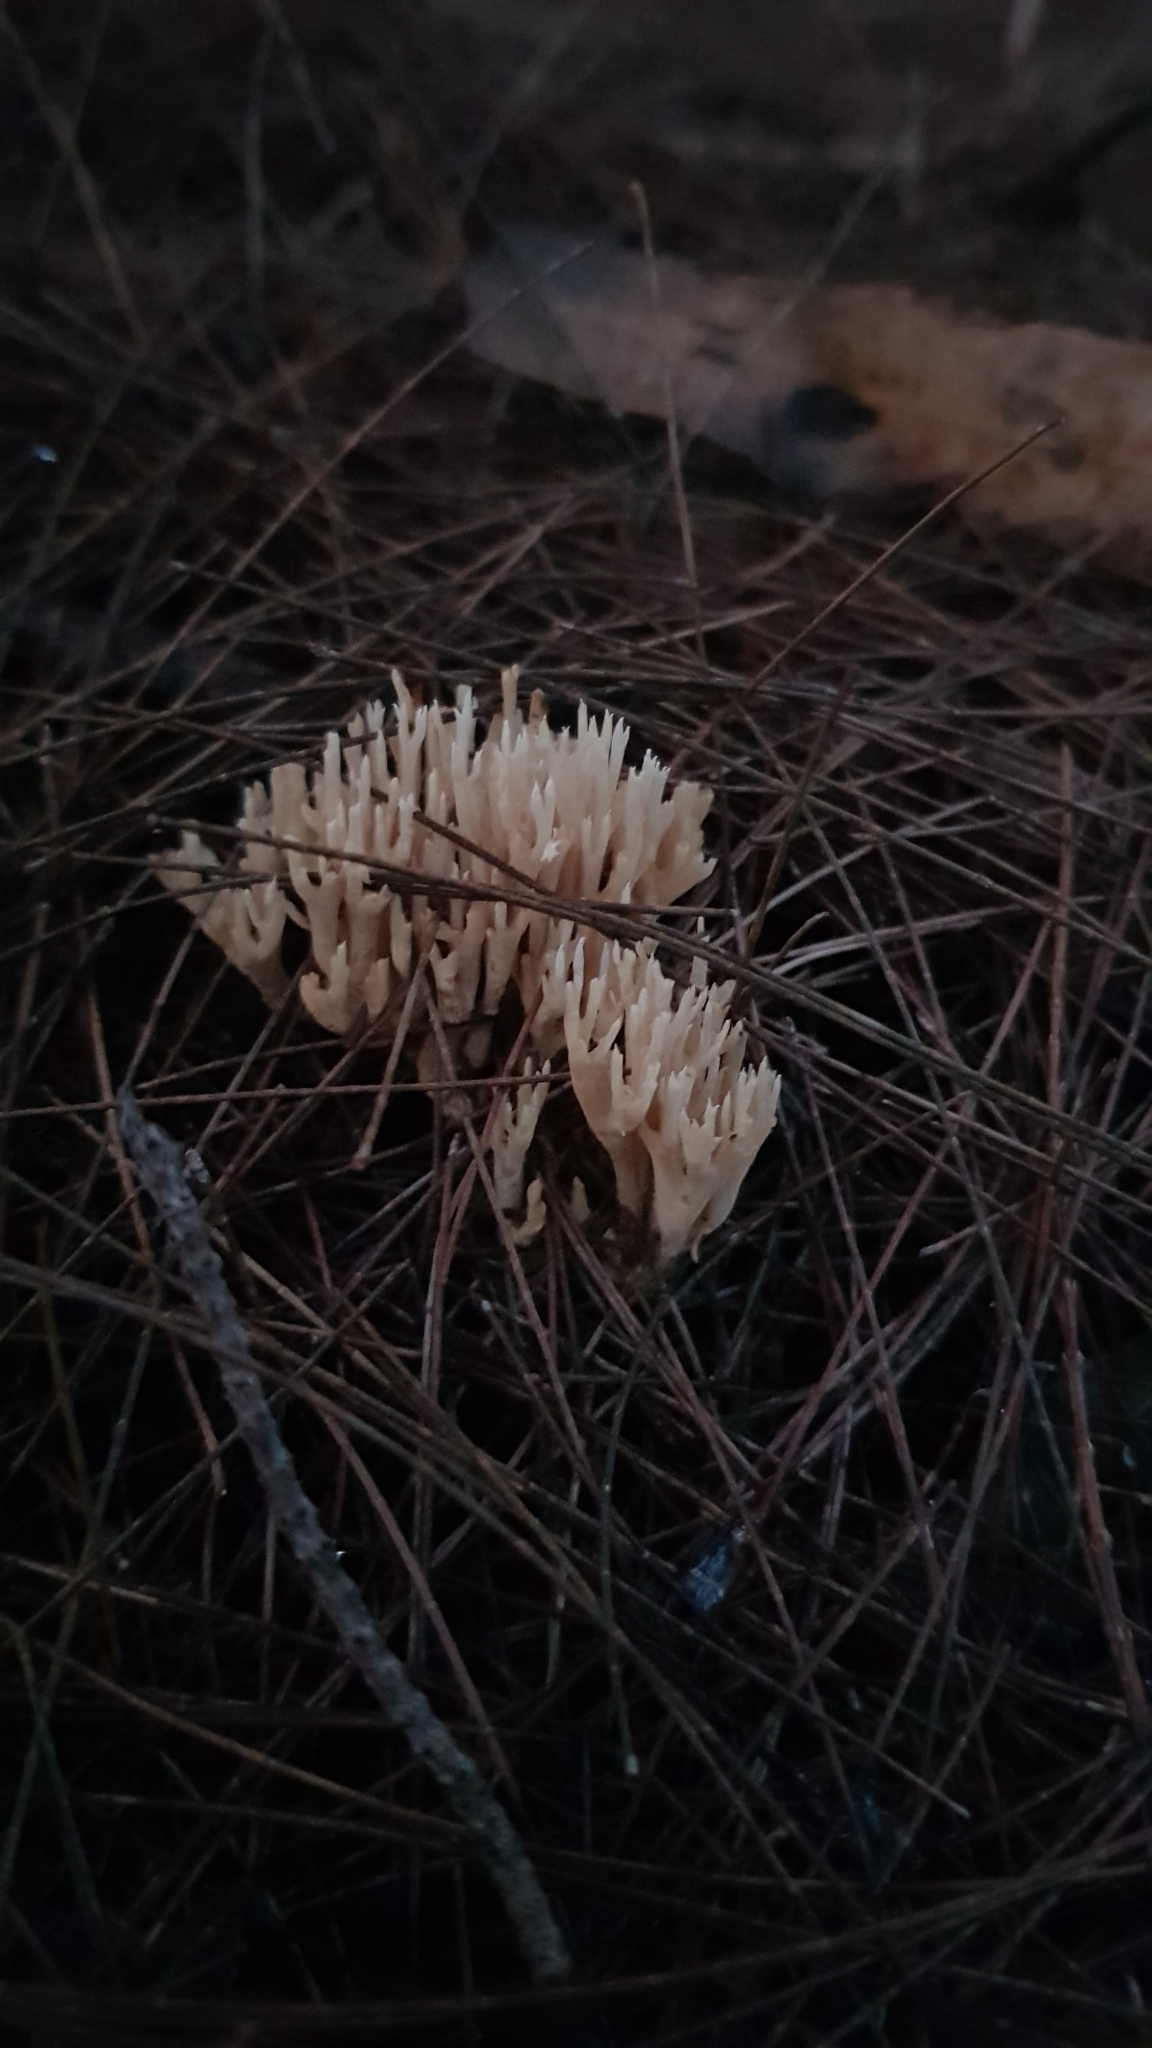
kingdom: Fungi
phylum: Basidiomycota
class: Agaricomycetes
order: Gomphales
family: Gomphaceae
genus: Ramaria
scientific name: Ramaria filicicola
